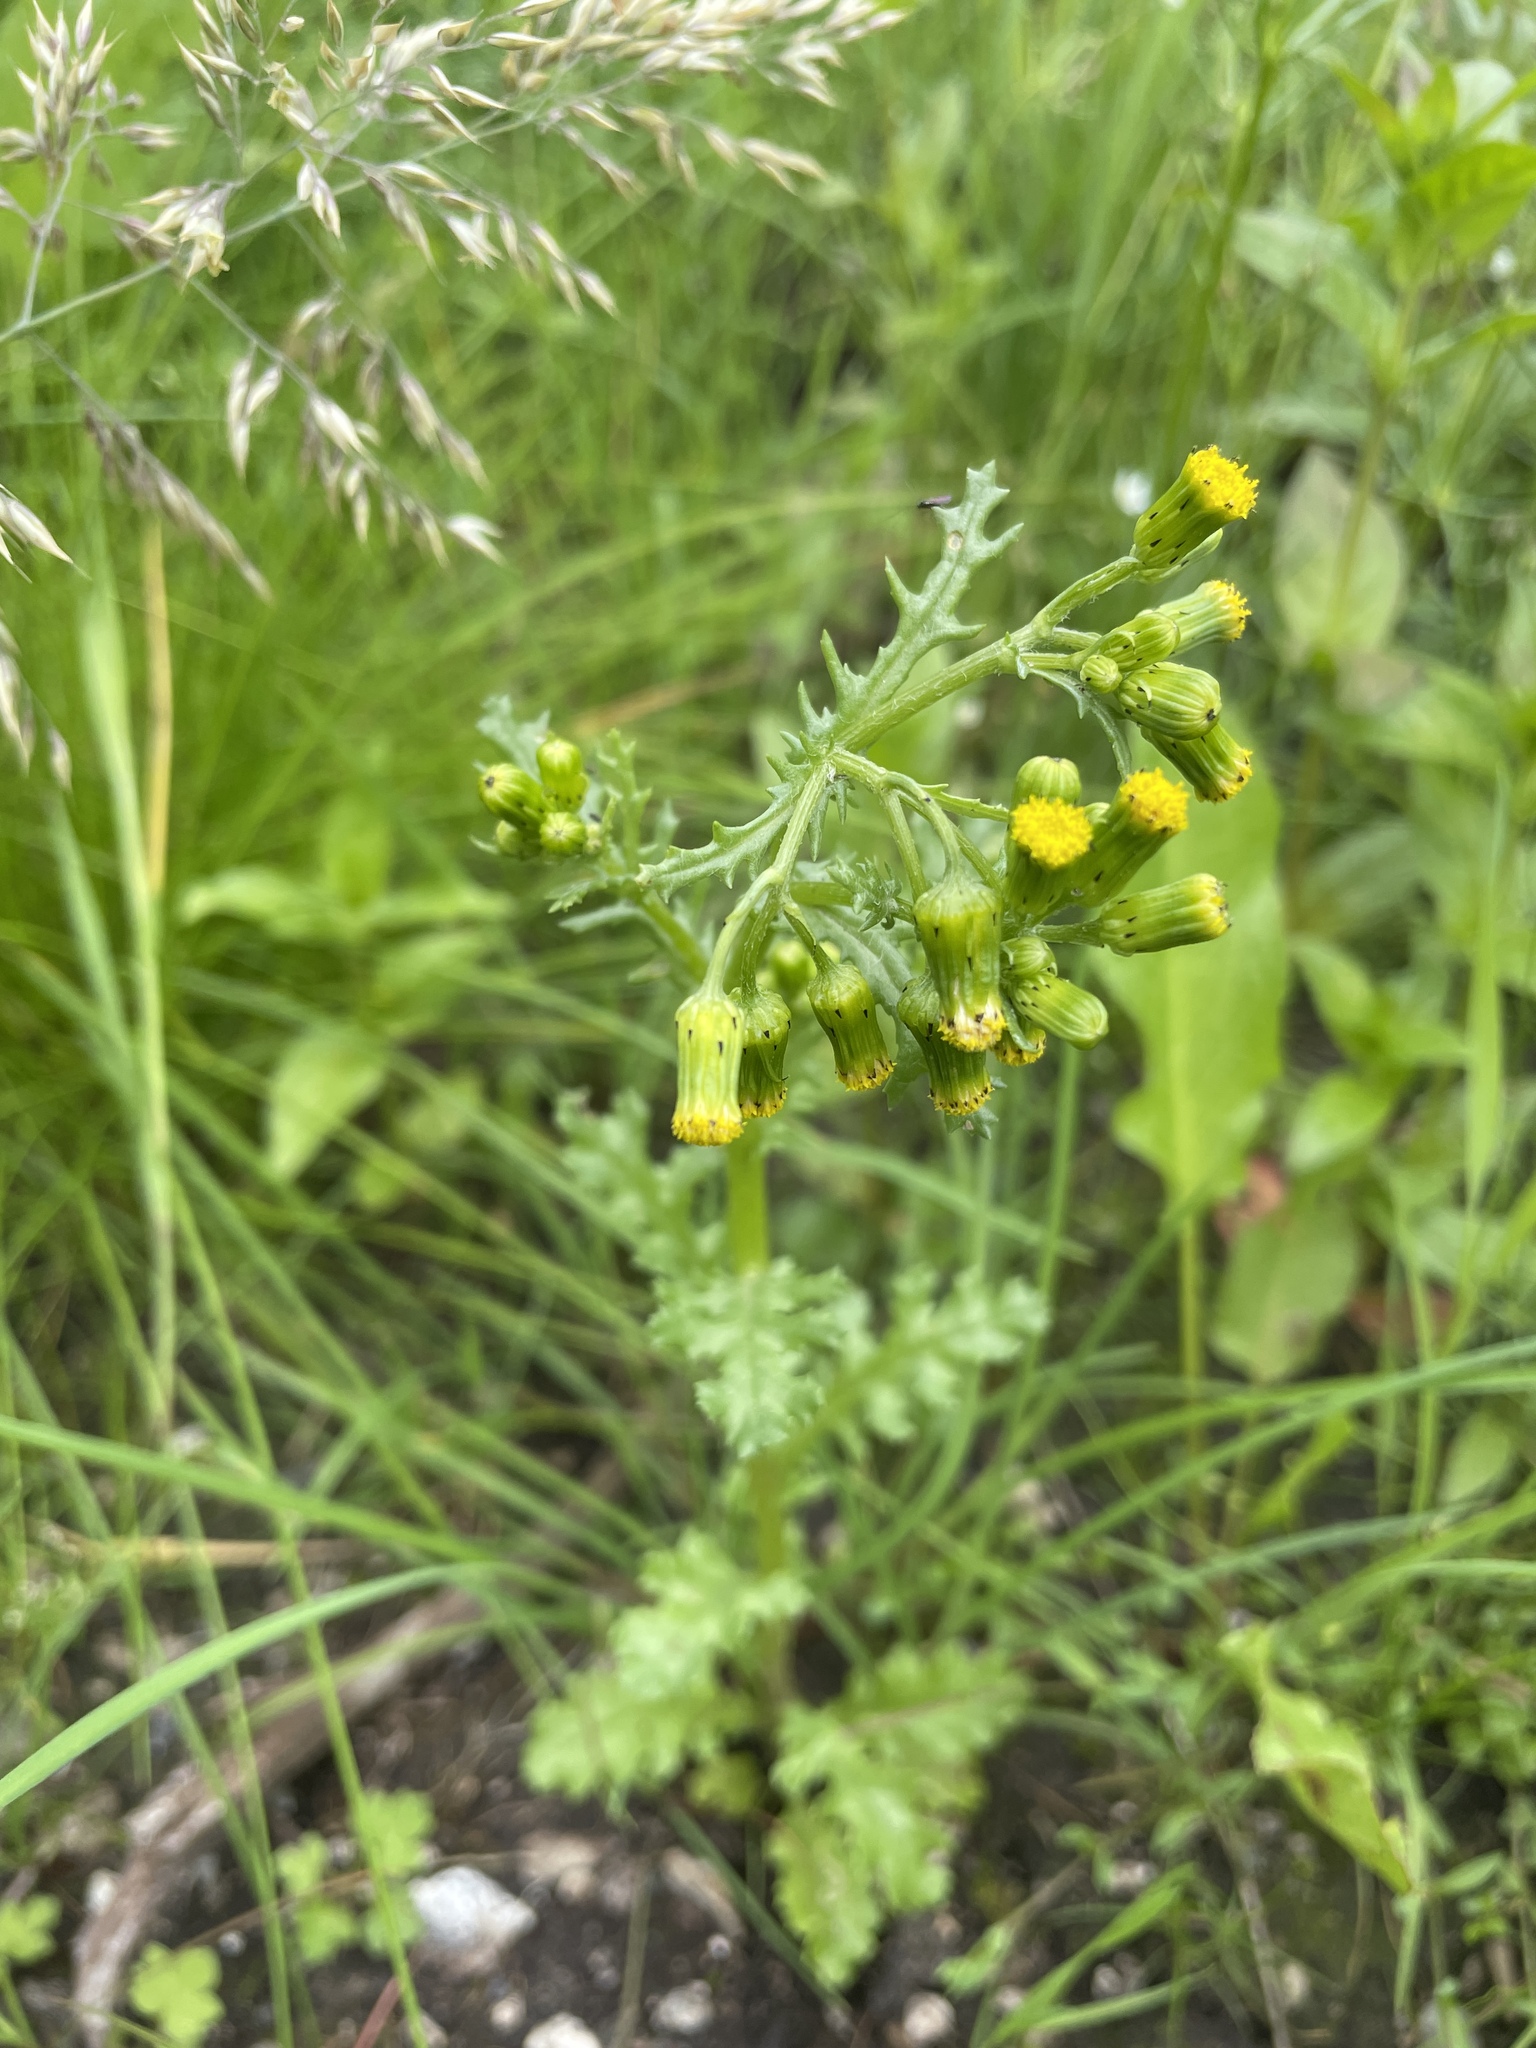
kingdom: Plantae
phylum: Tracheophyta
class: Magnoliopsida
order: Asterales
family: Asteraceae
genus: Senecio
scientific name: Senecio vulgaris
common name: Old-man-in-the-spring
